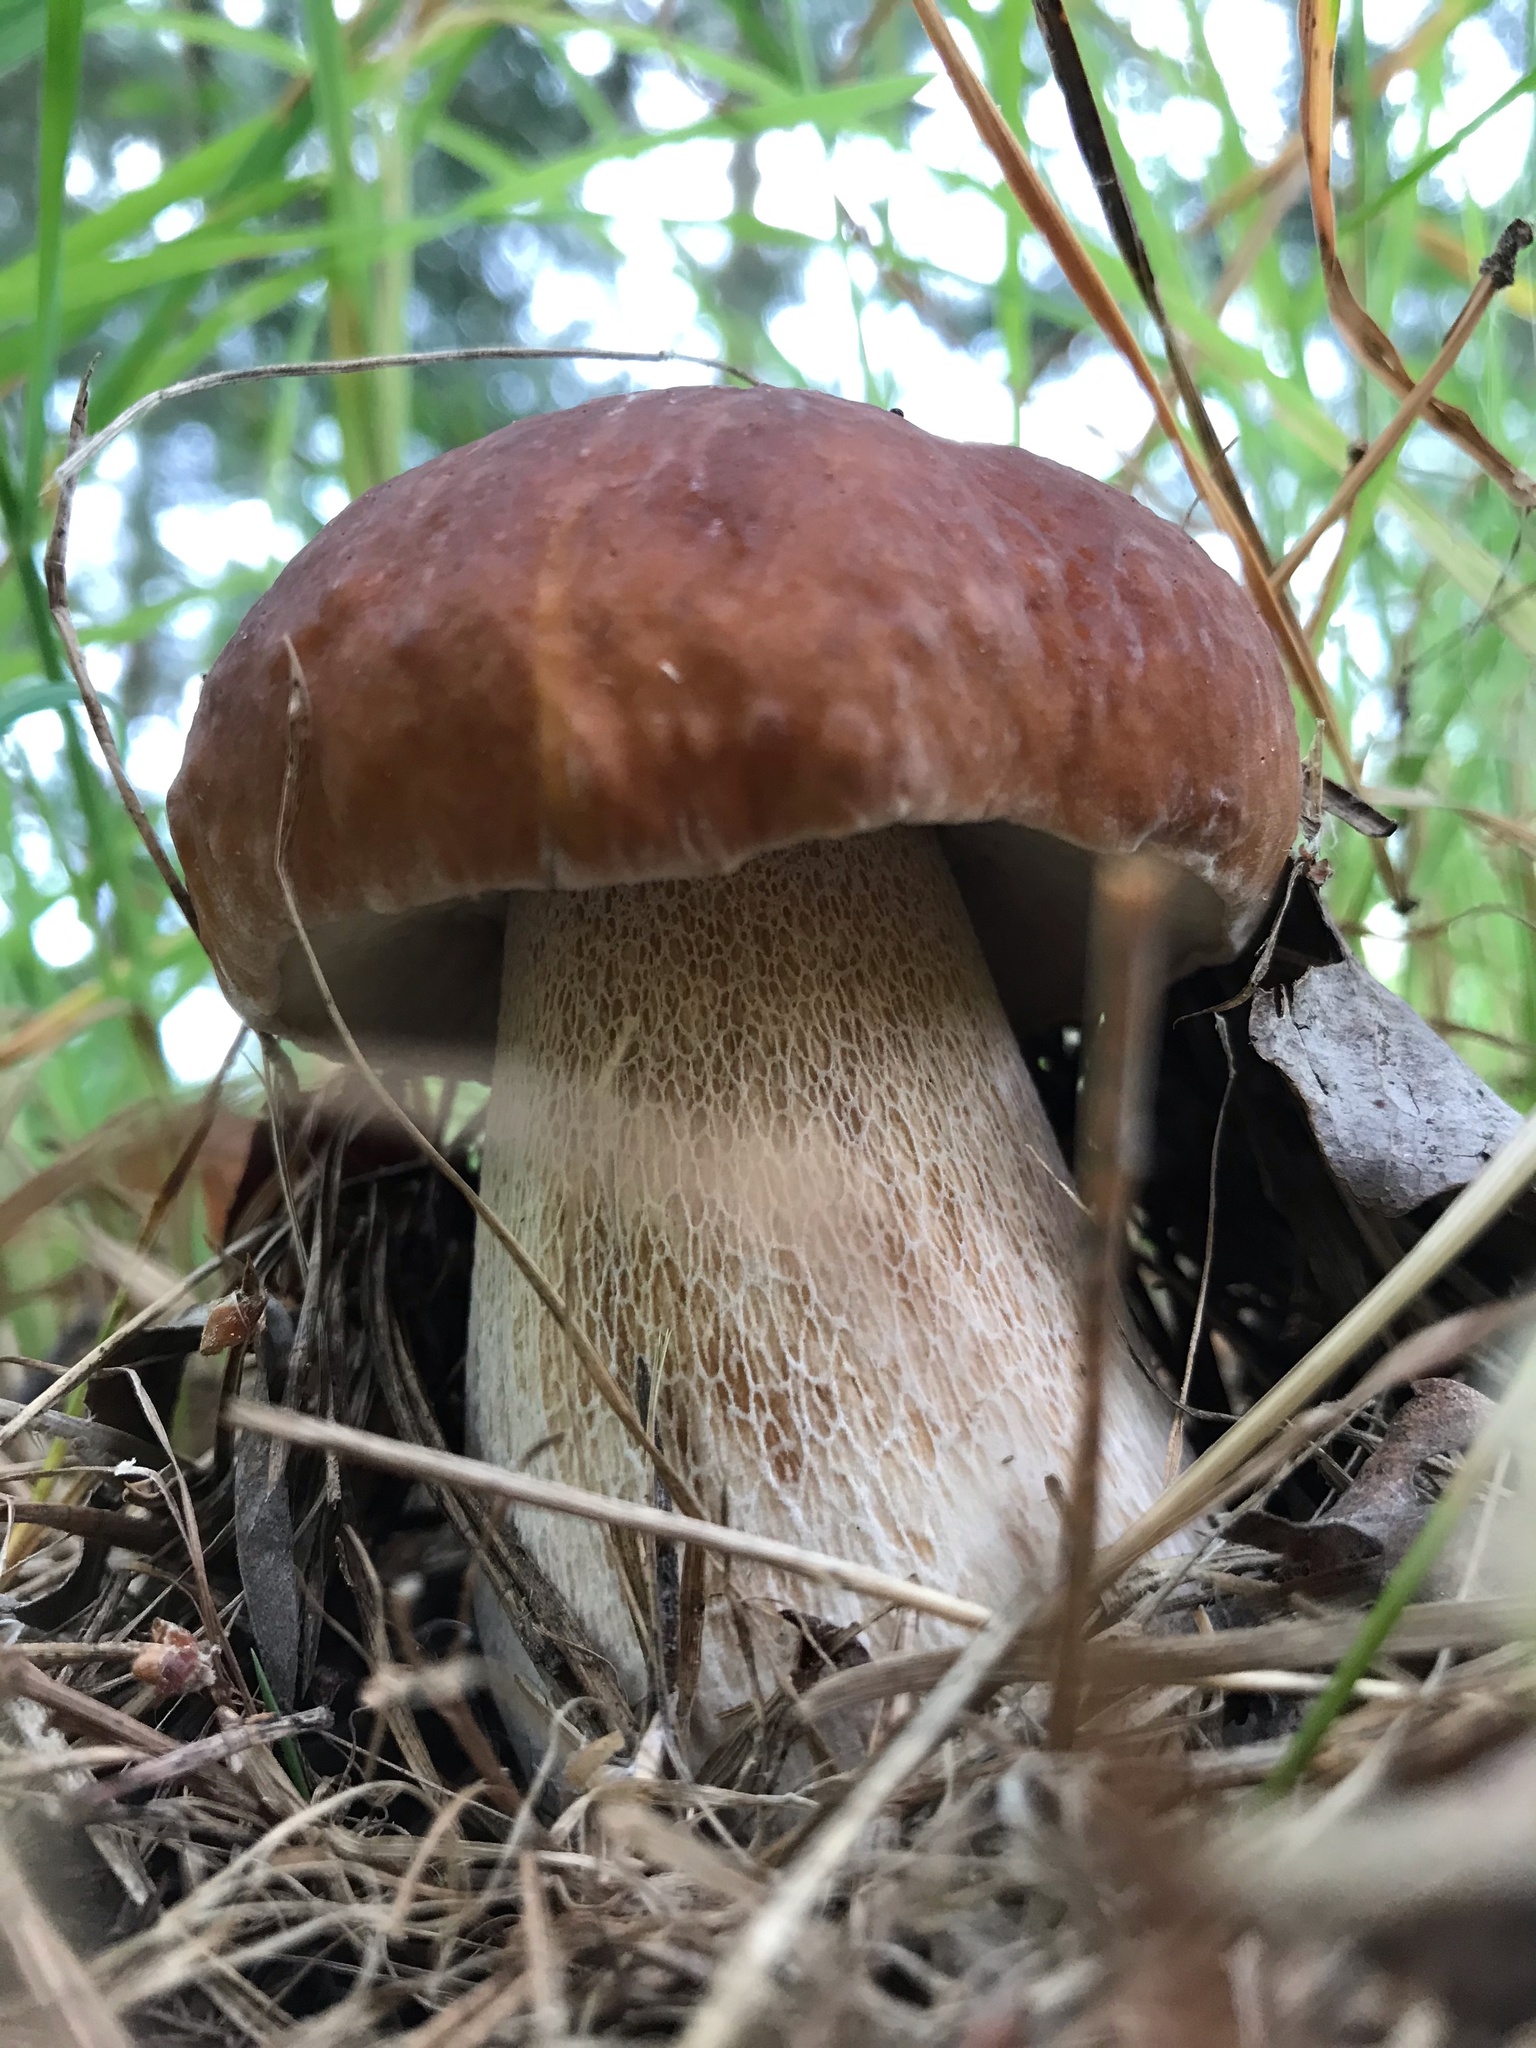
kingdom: Fungi
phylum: Basidiomycota
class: Agaricomycetes
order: Boletales
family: Boletaceae
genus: Boletus
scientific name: Boletus edulis
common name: Cep
